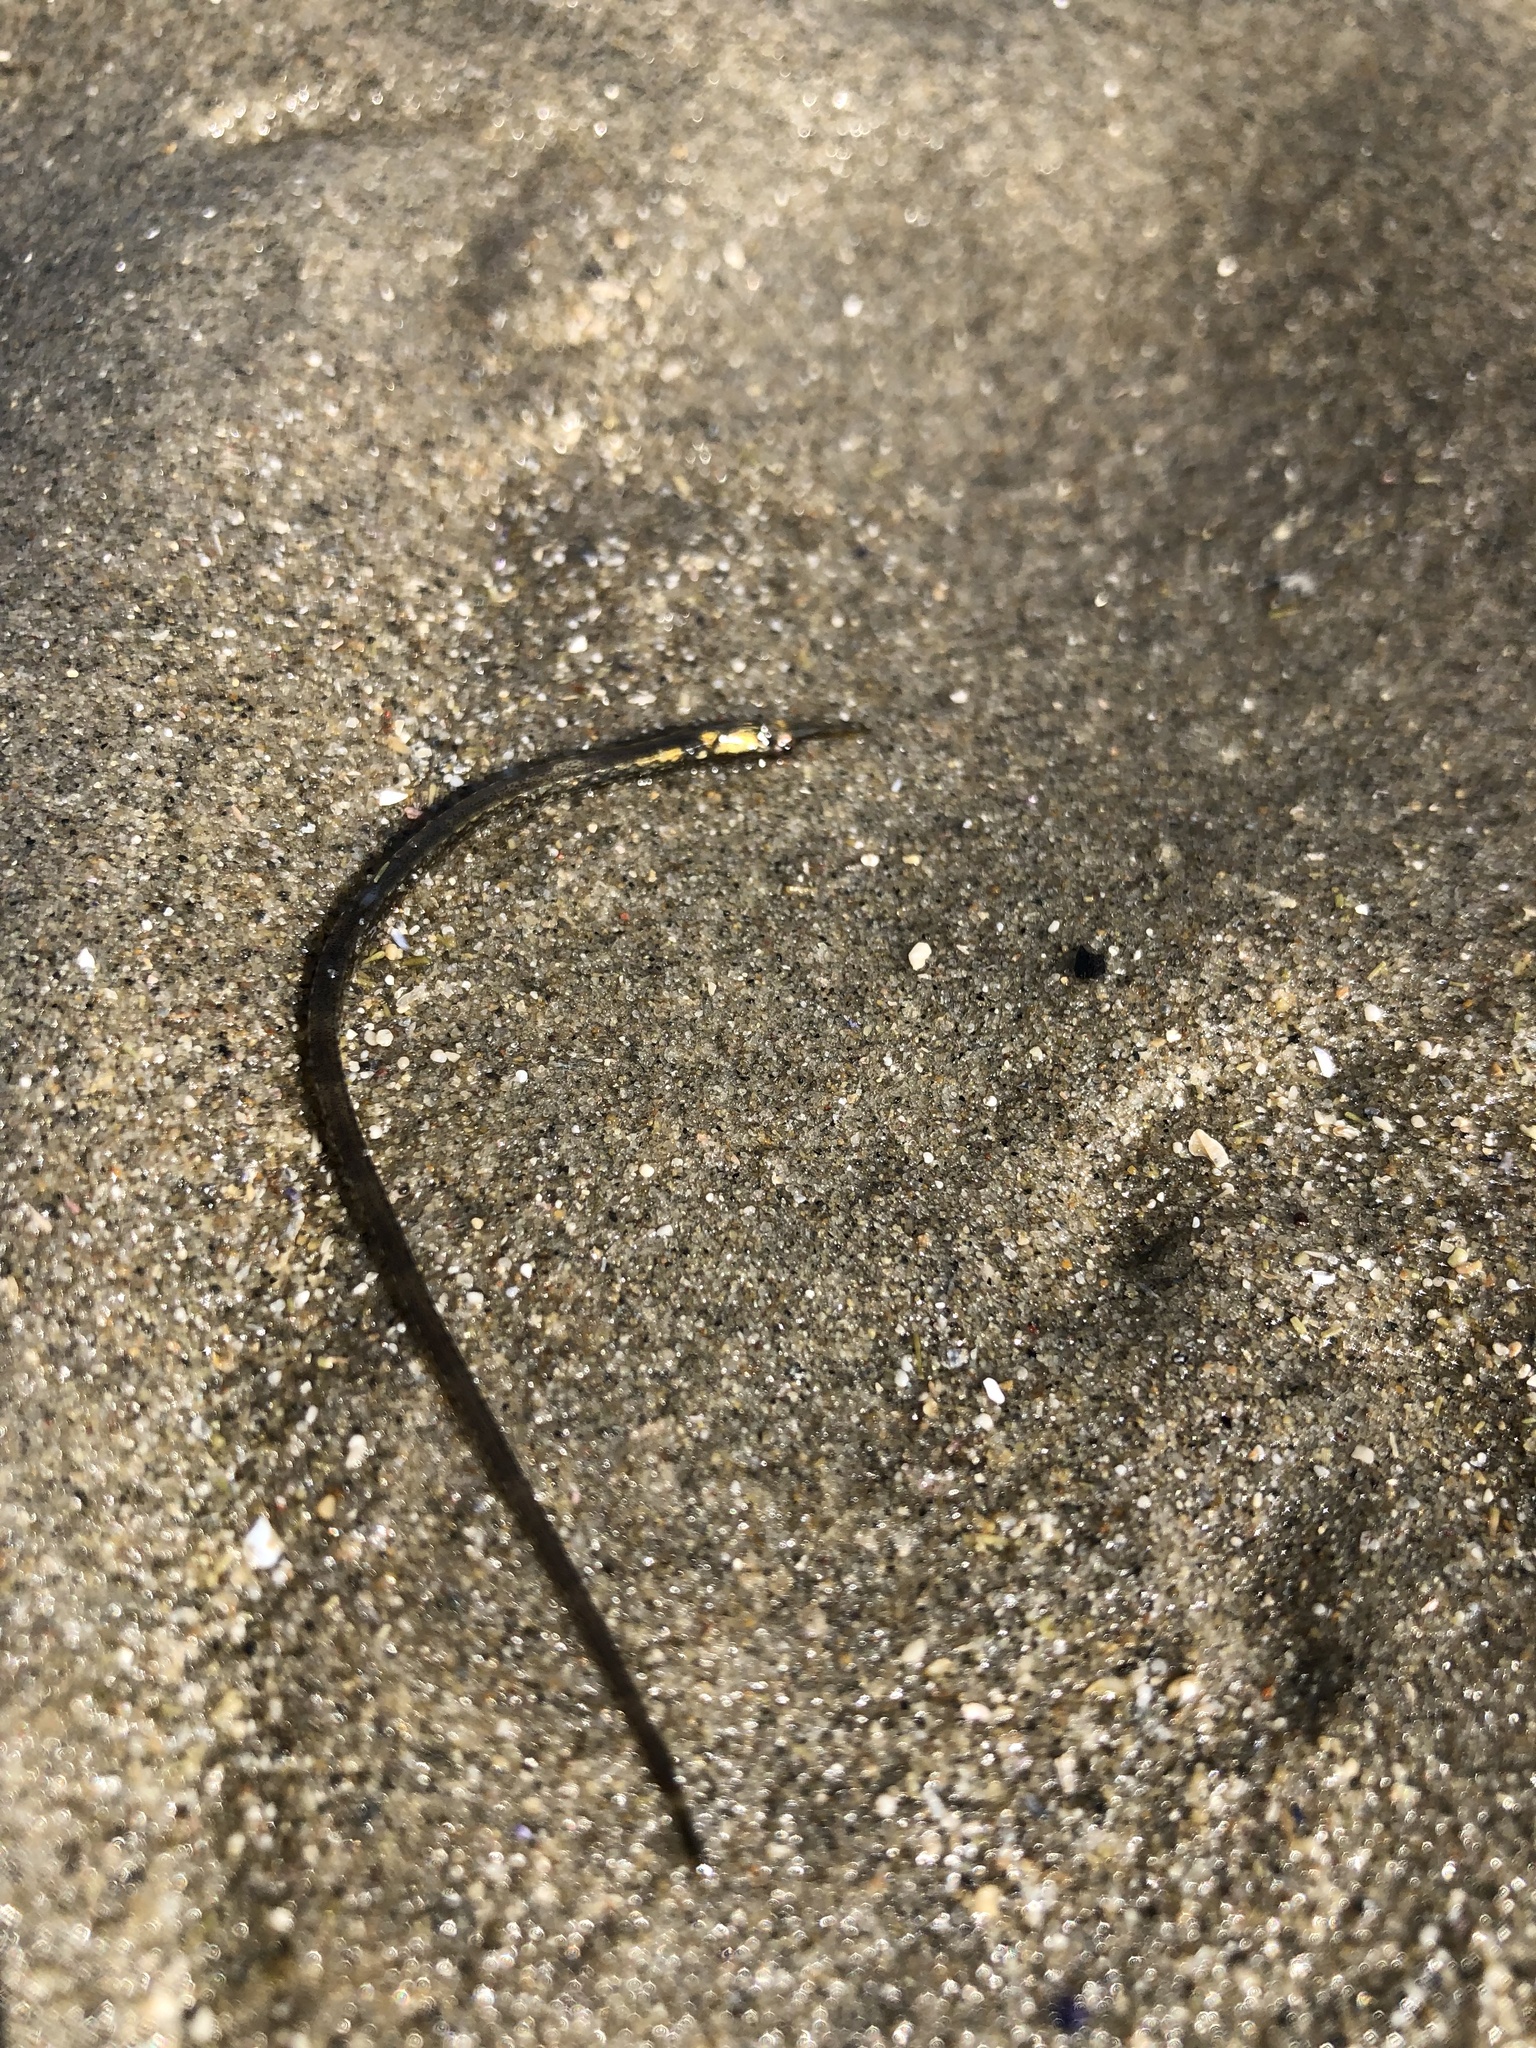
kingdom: Animalia
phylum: Chordata
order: Syngnathiformes
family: Syngnathidae
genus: Syngnathus
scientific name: Syngnathus fuscus
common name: Northern pipefish
